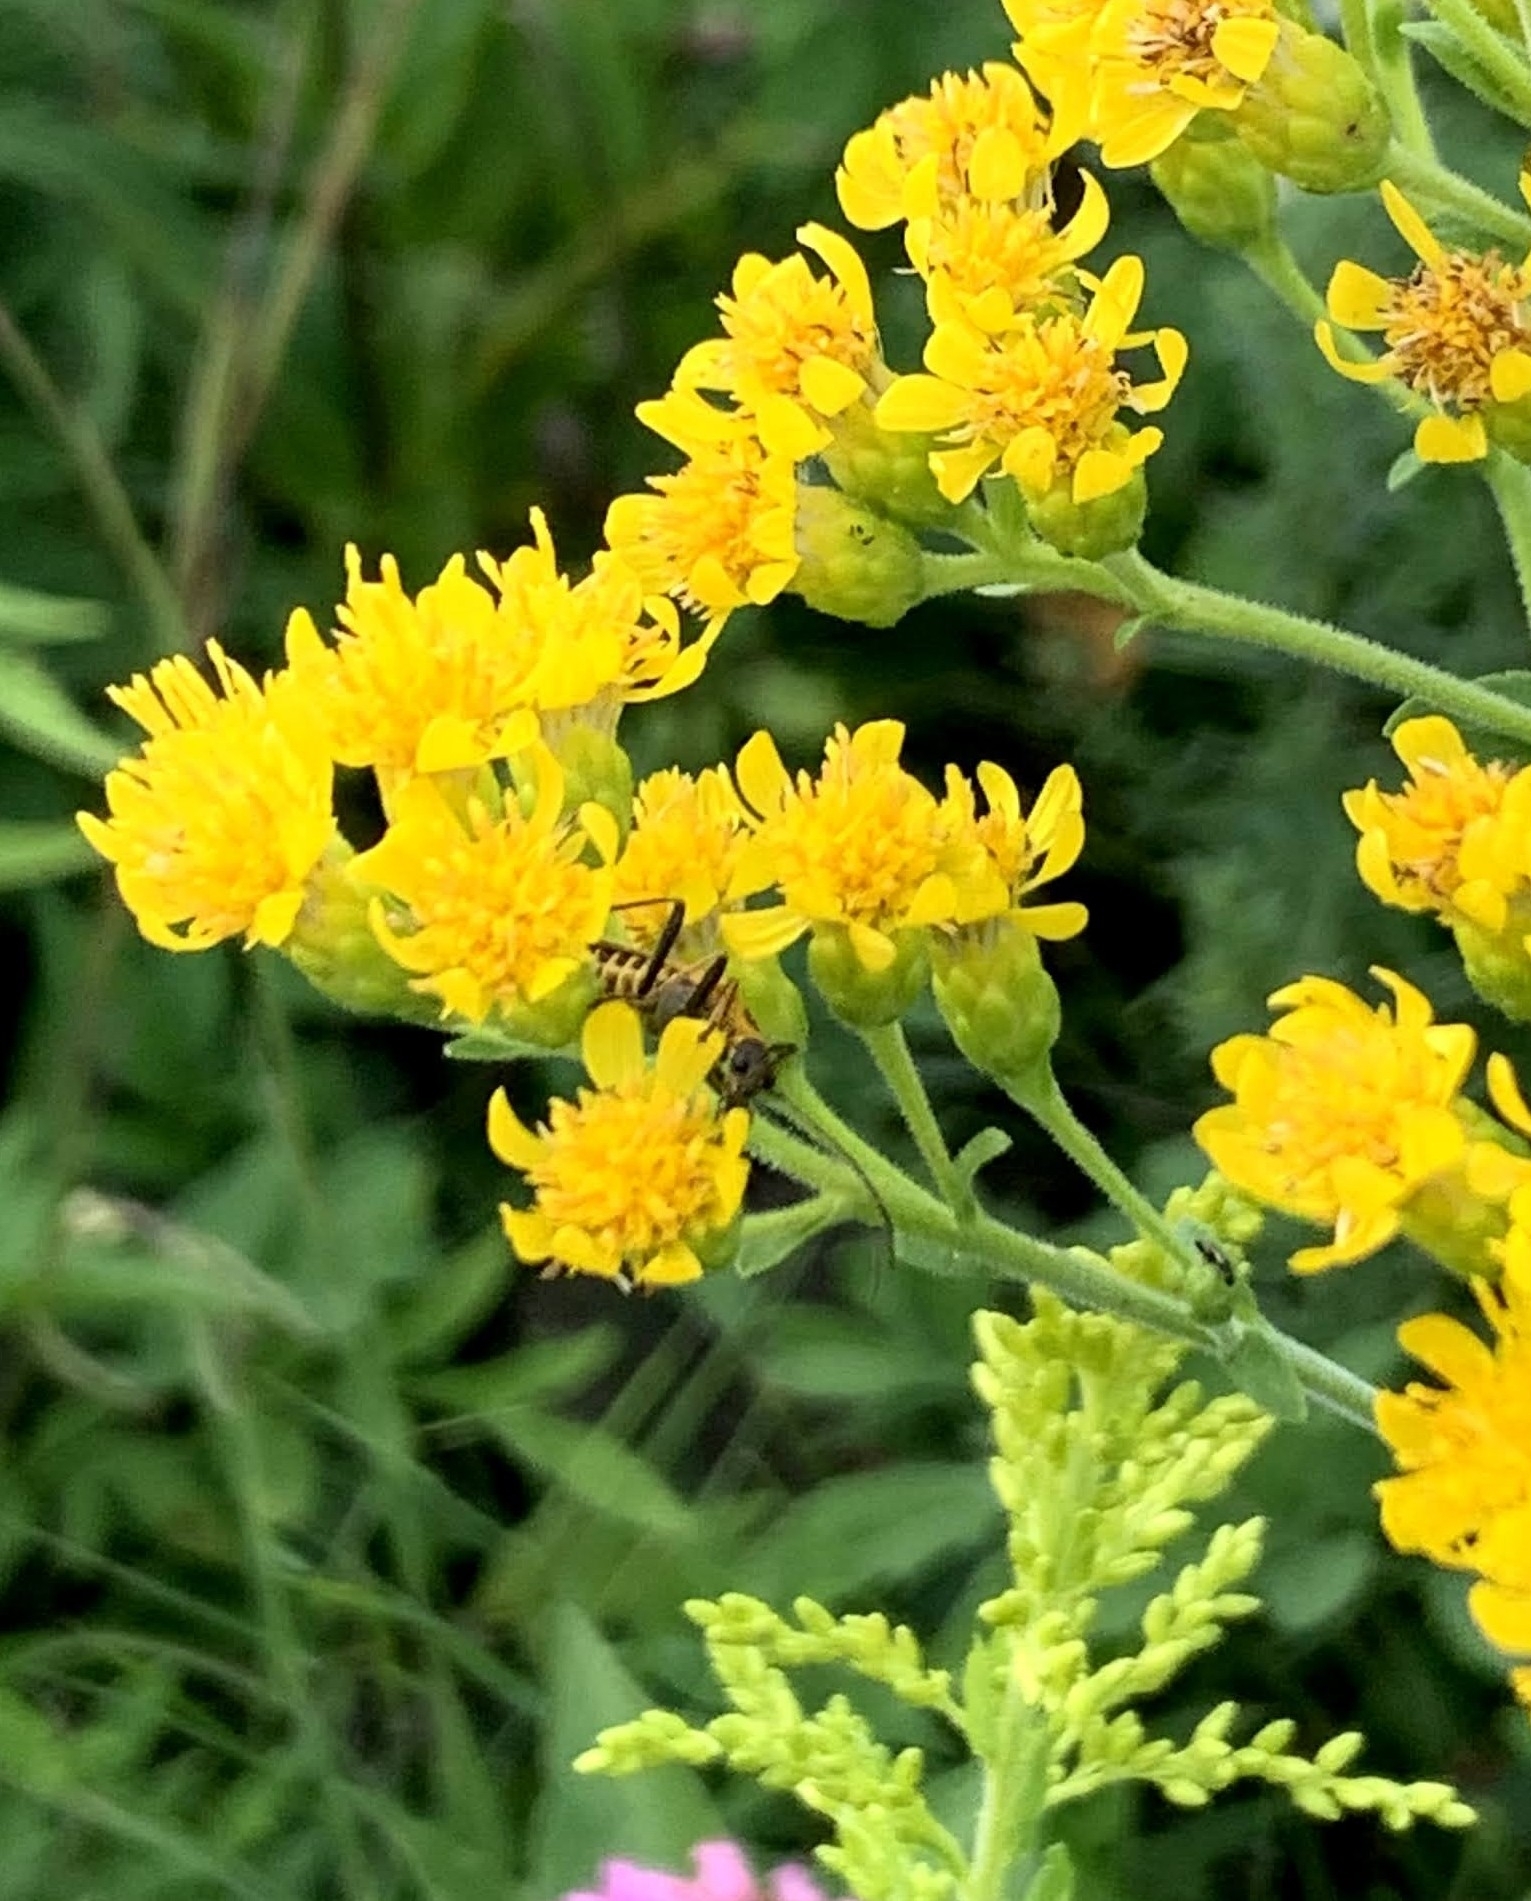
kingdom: Animalia
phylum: Arthropoda
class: Insecta
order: Coleoptera
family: Cantharidae
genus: Chauliognathus
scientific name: Chauliognathus pensylvanicus
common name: Goldenrod soldier beetle
